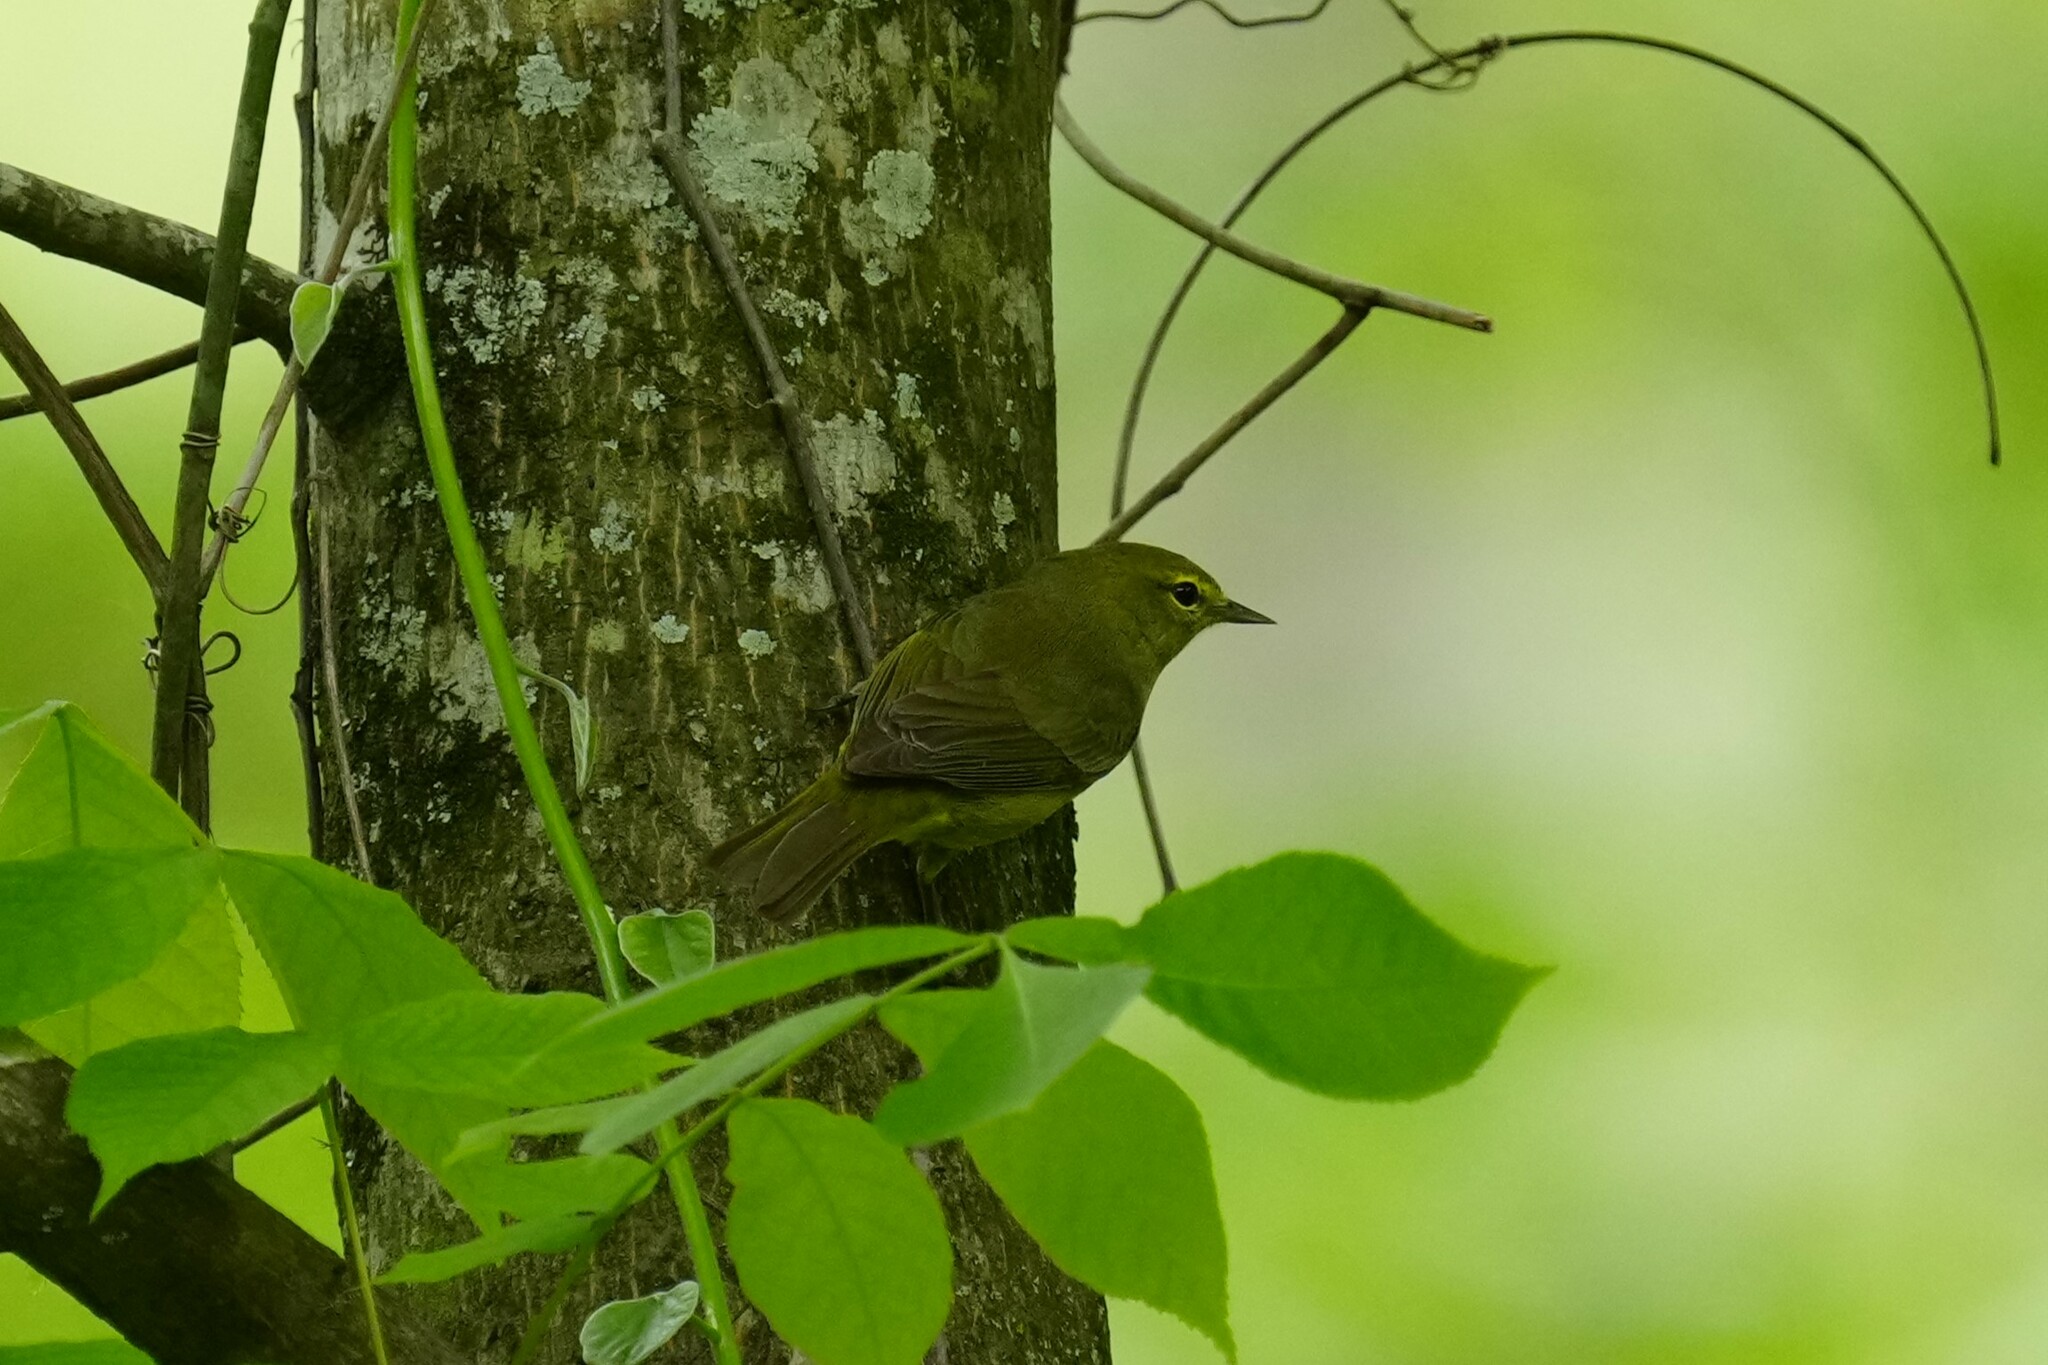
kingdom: Animalia
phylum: Chordata
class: Aves
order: Passeriformes
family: Parulidae
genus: Leiothlypis
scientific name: Leiothlypis celata
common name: Orange-crowned warbler
